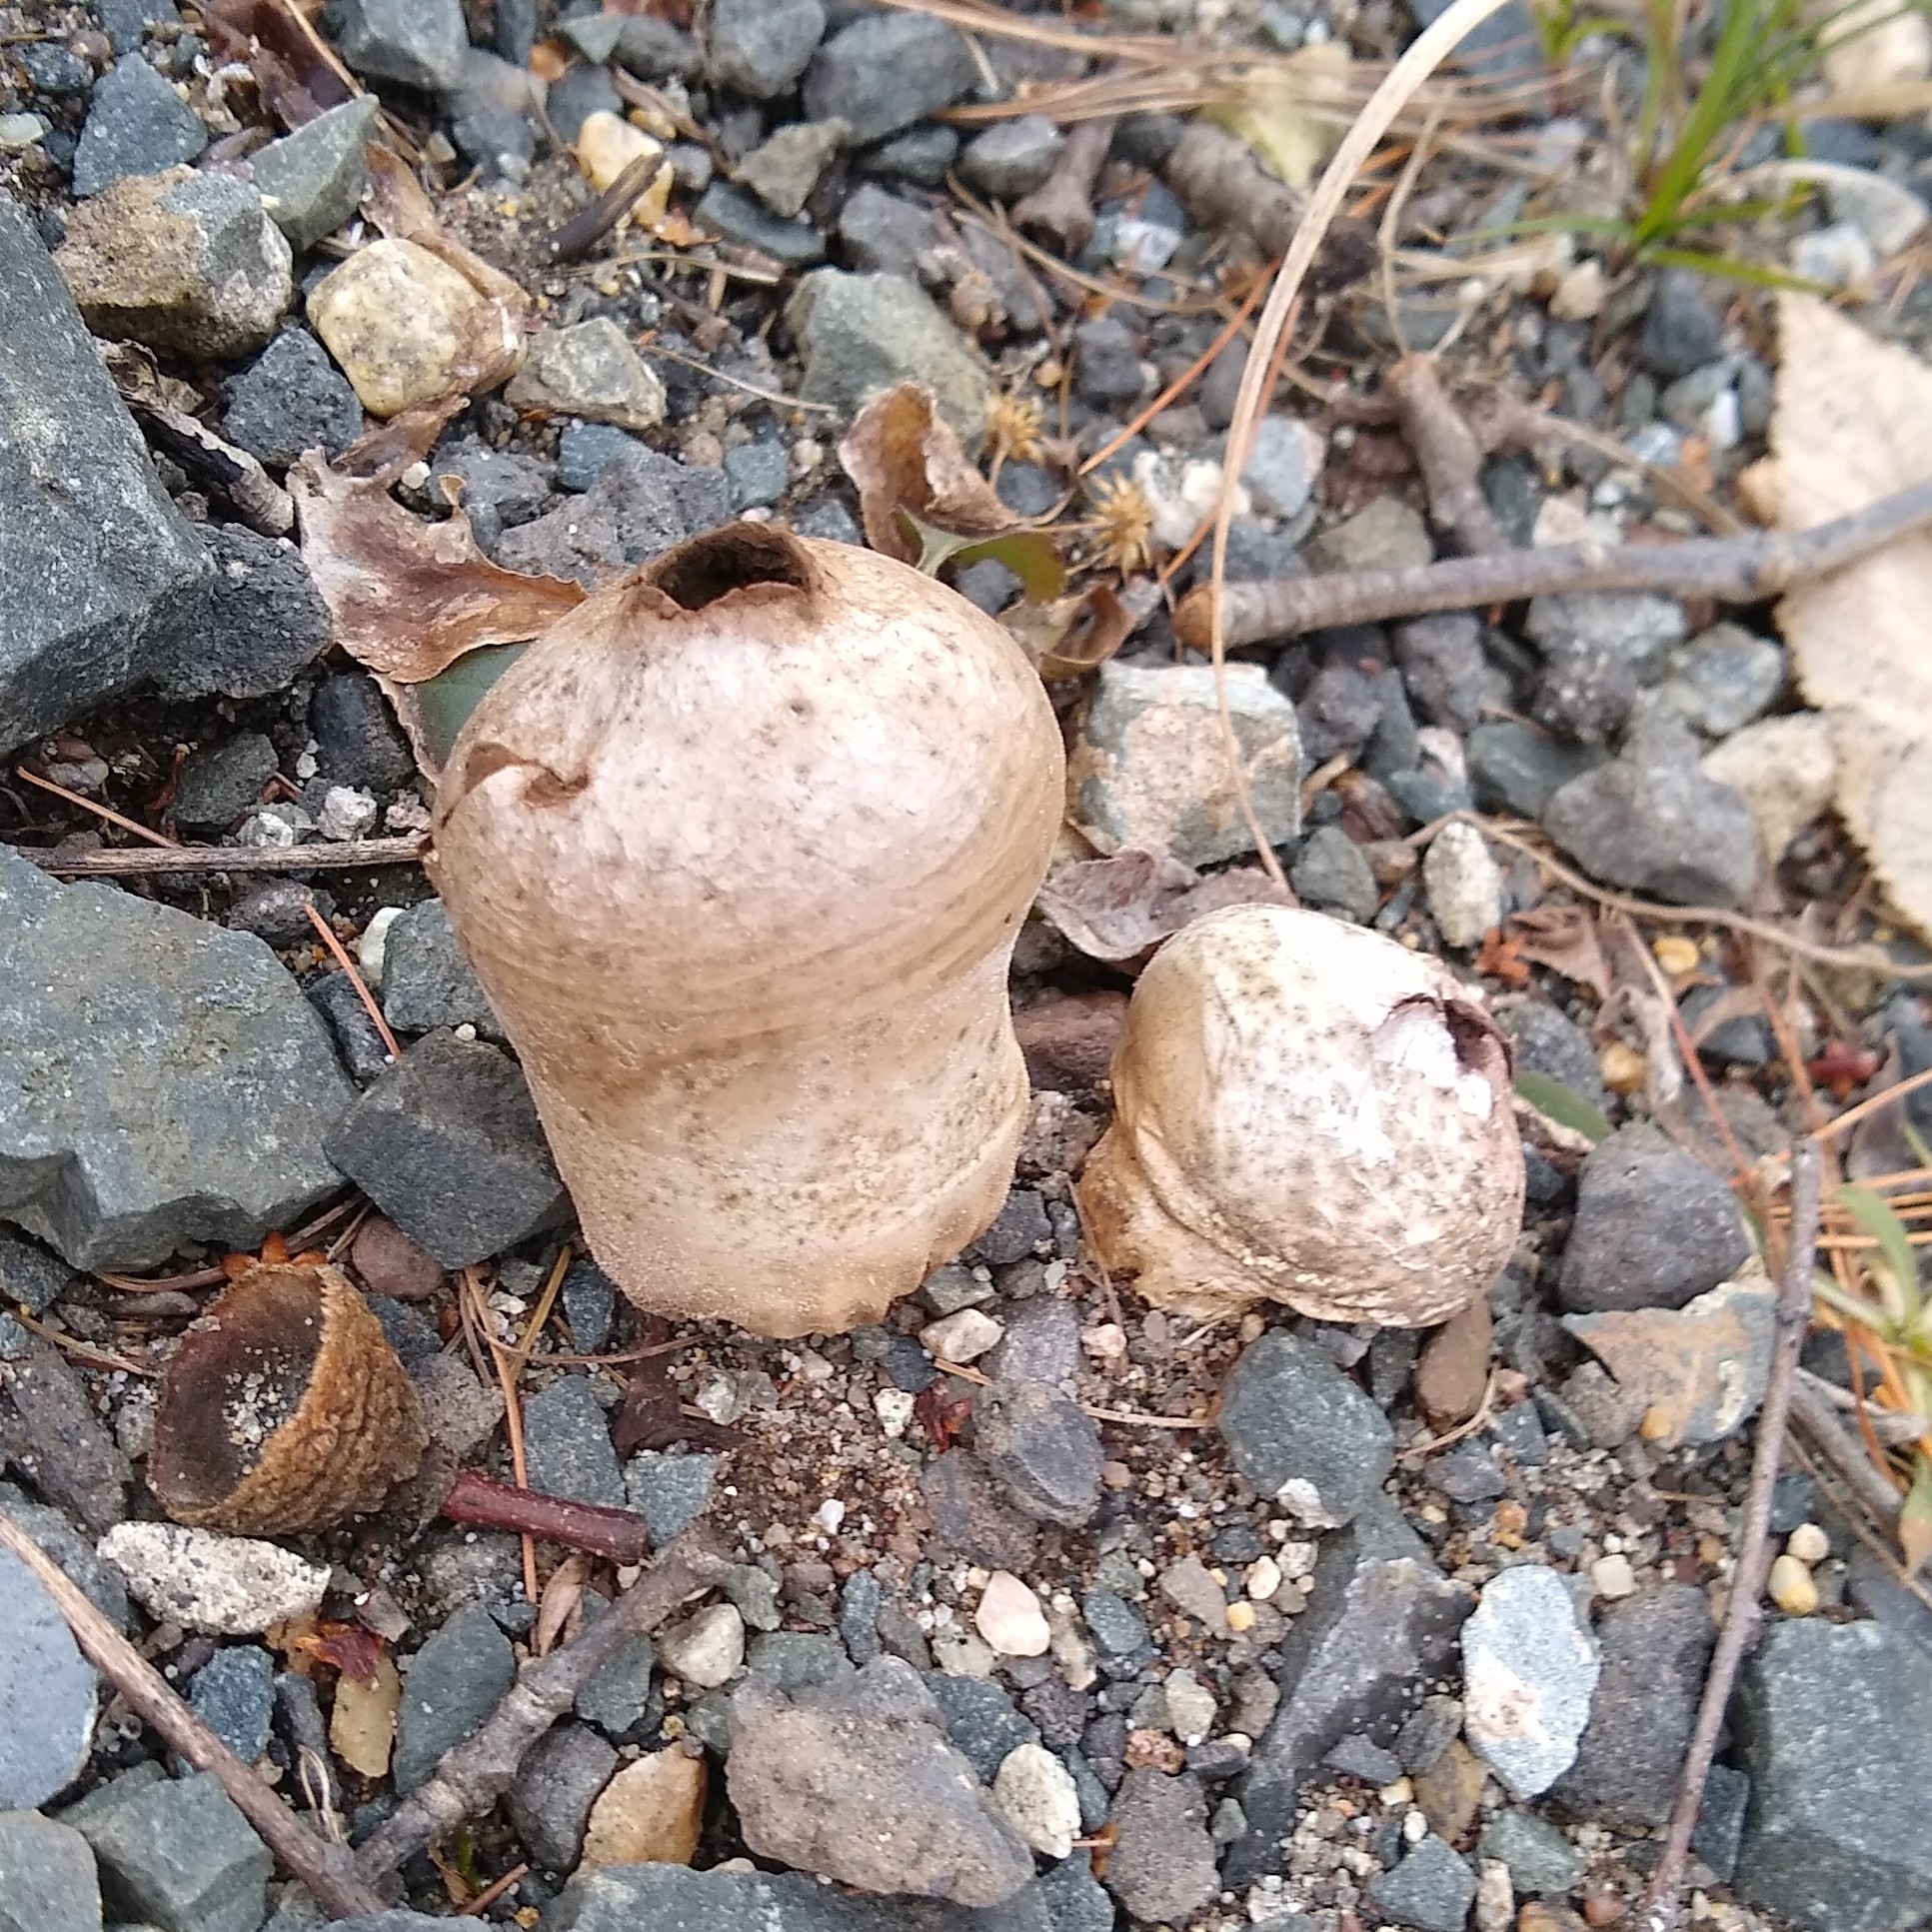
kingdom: Fungi
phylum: Basidiomycota
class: Agaricomycetes
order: Agaricales
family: Lycoperdaceae
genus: Apioperdon
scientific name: Apioperdon pyriforme
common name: Pear-shaped puffball
